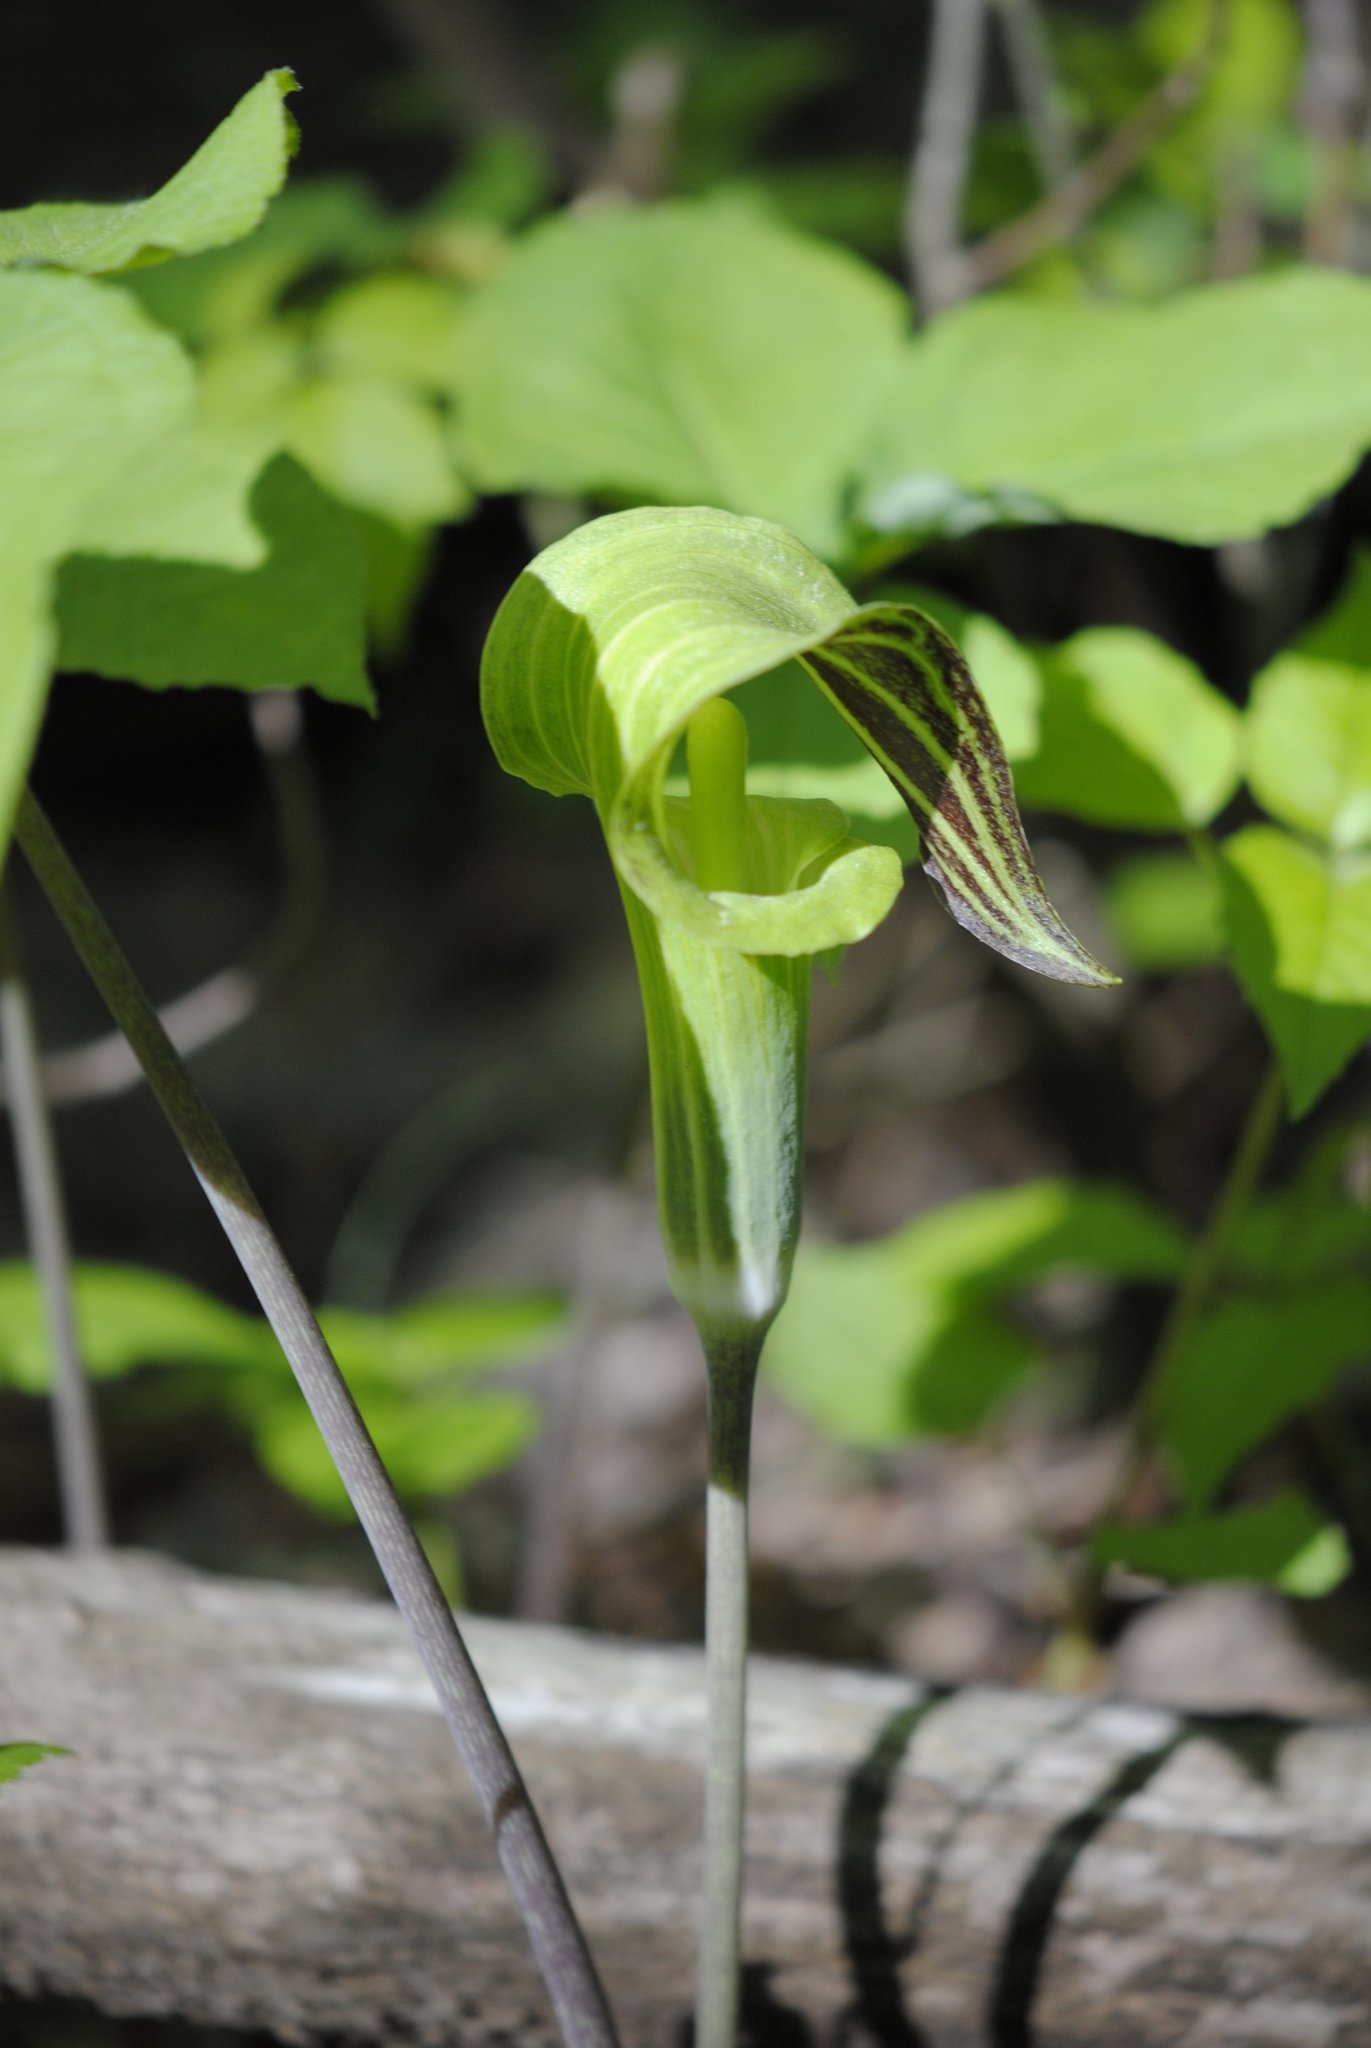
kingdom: Plantae
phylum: Tracheophyta
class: Liliopsida
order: Alismatales
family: Araceae
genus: Arisaema
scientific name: Arisaema triphyllum
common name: Jack-in-the-pulpit
